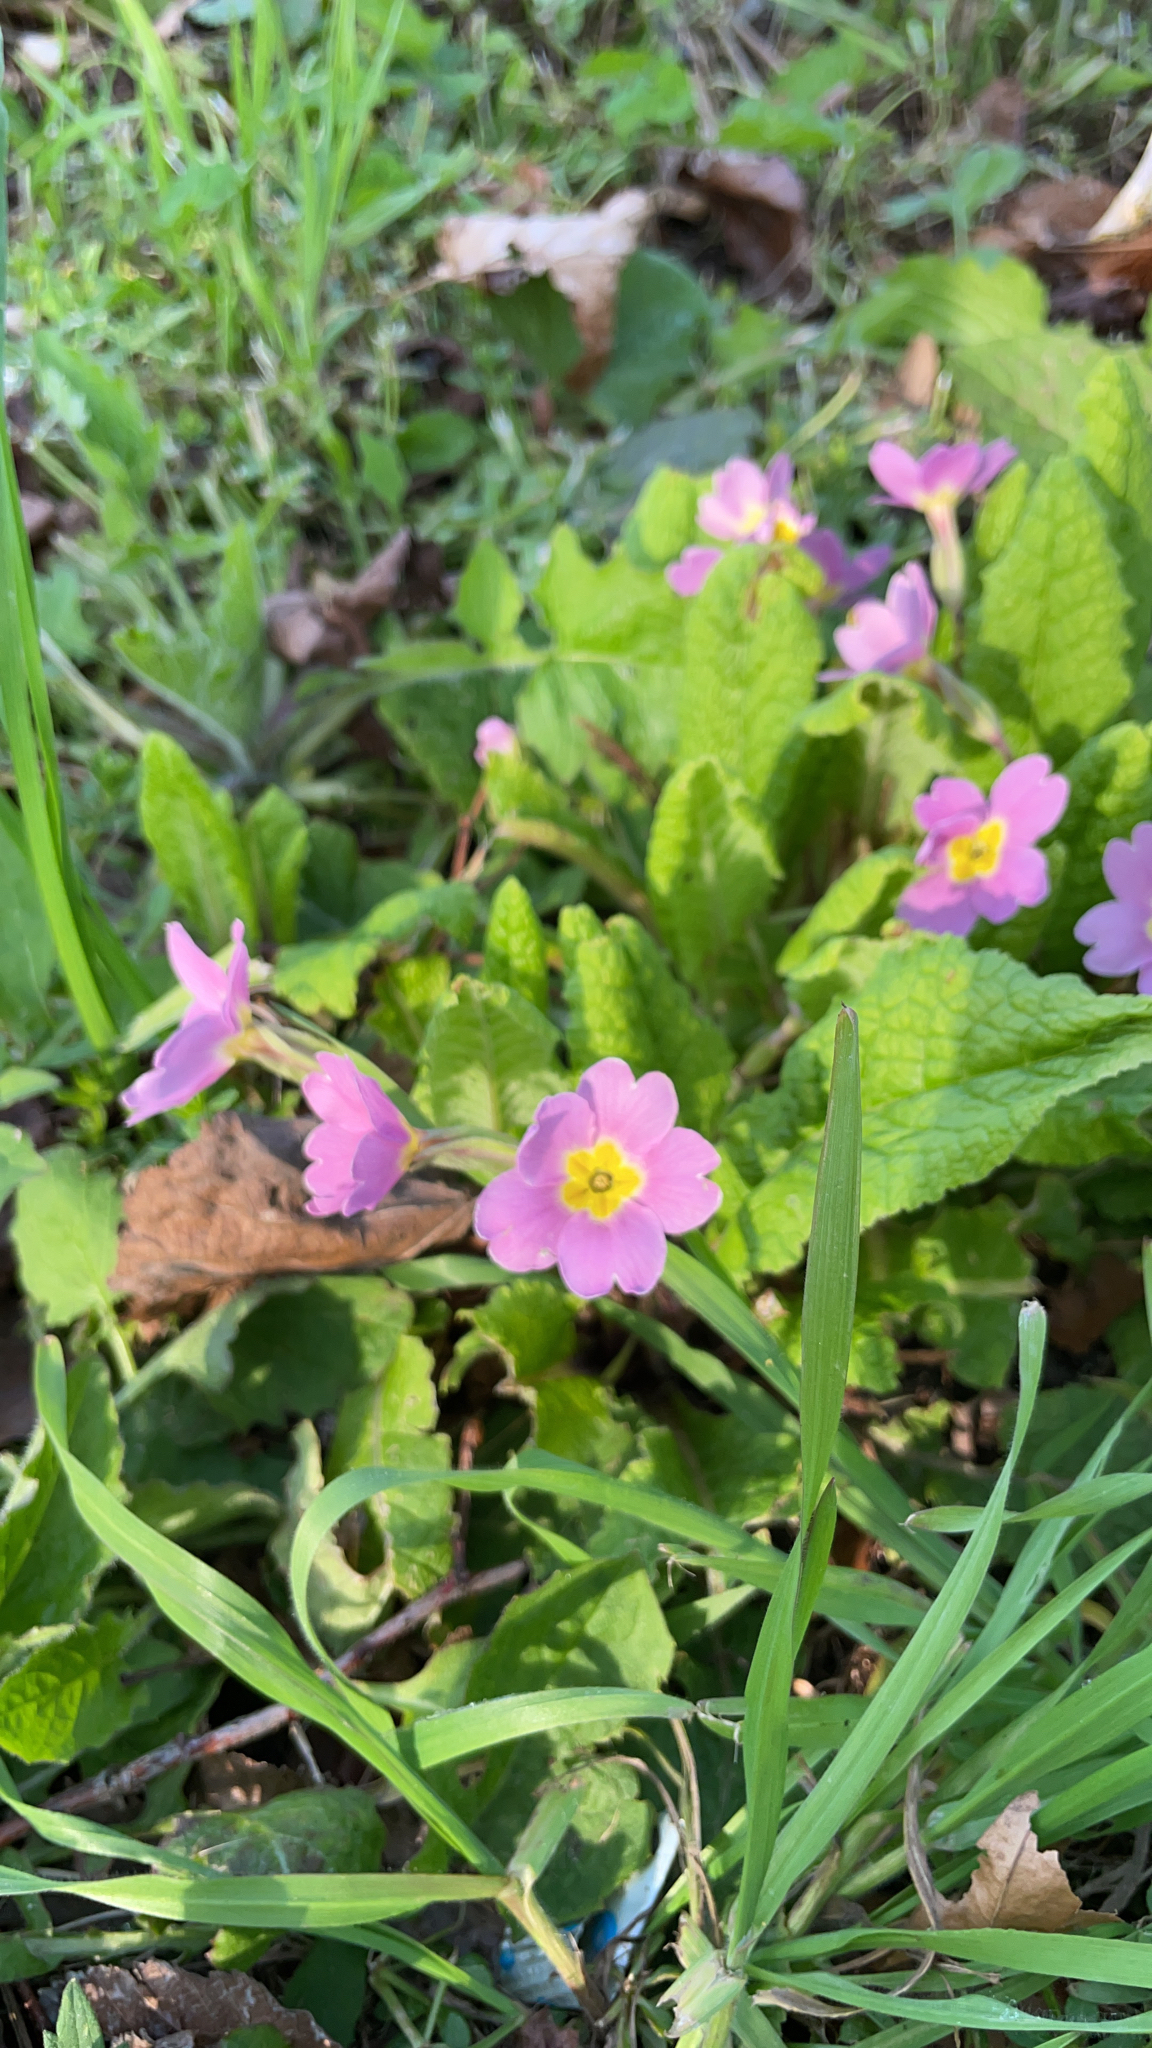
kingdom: Plantae
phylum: Tracheophyta
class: Magnoliopsida
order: Ericales
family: Primulaceae
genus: Primula
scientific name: Primula vulgaris
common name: Primrose
